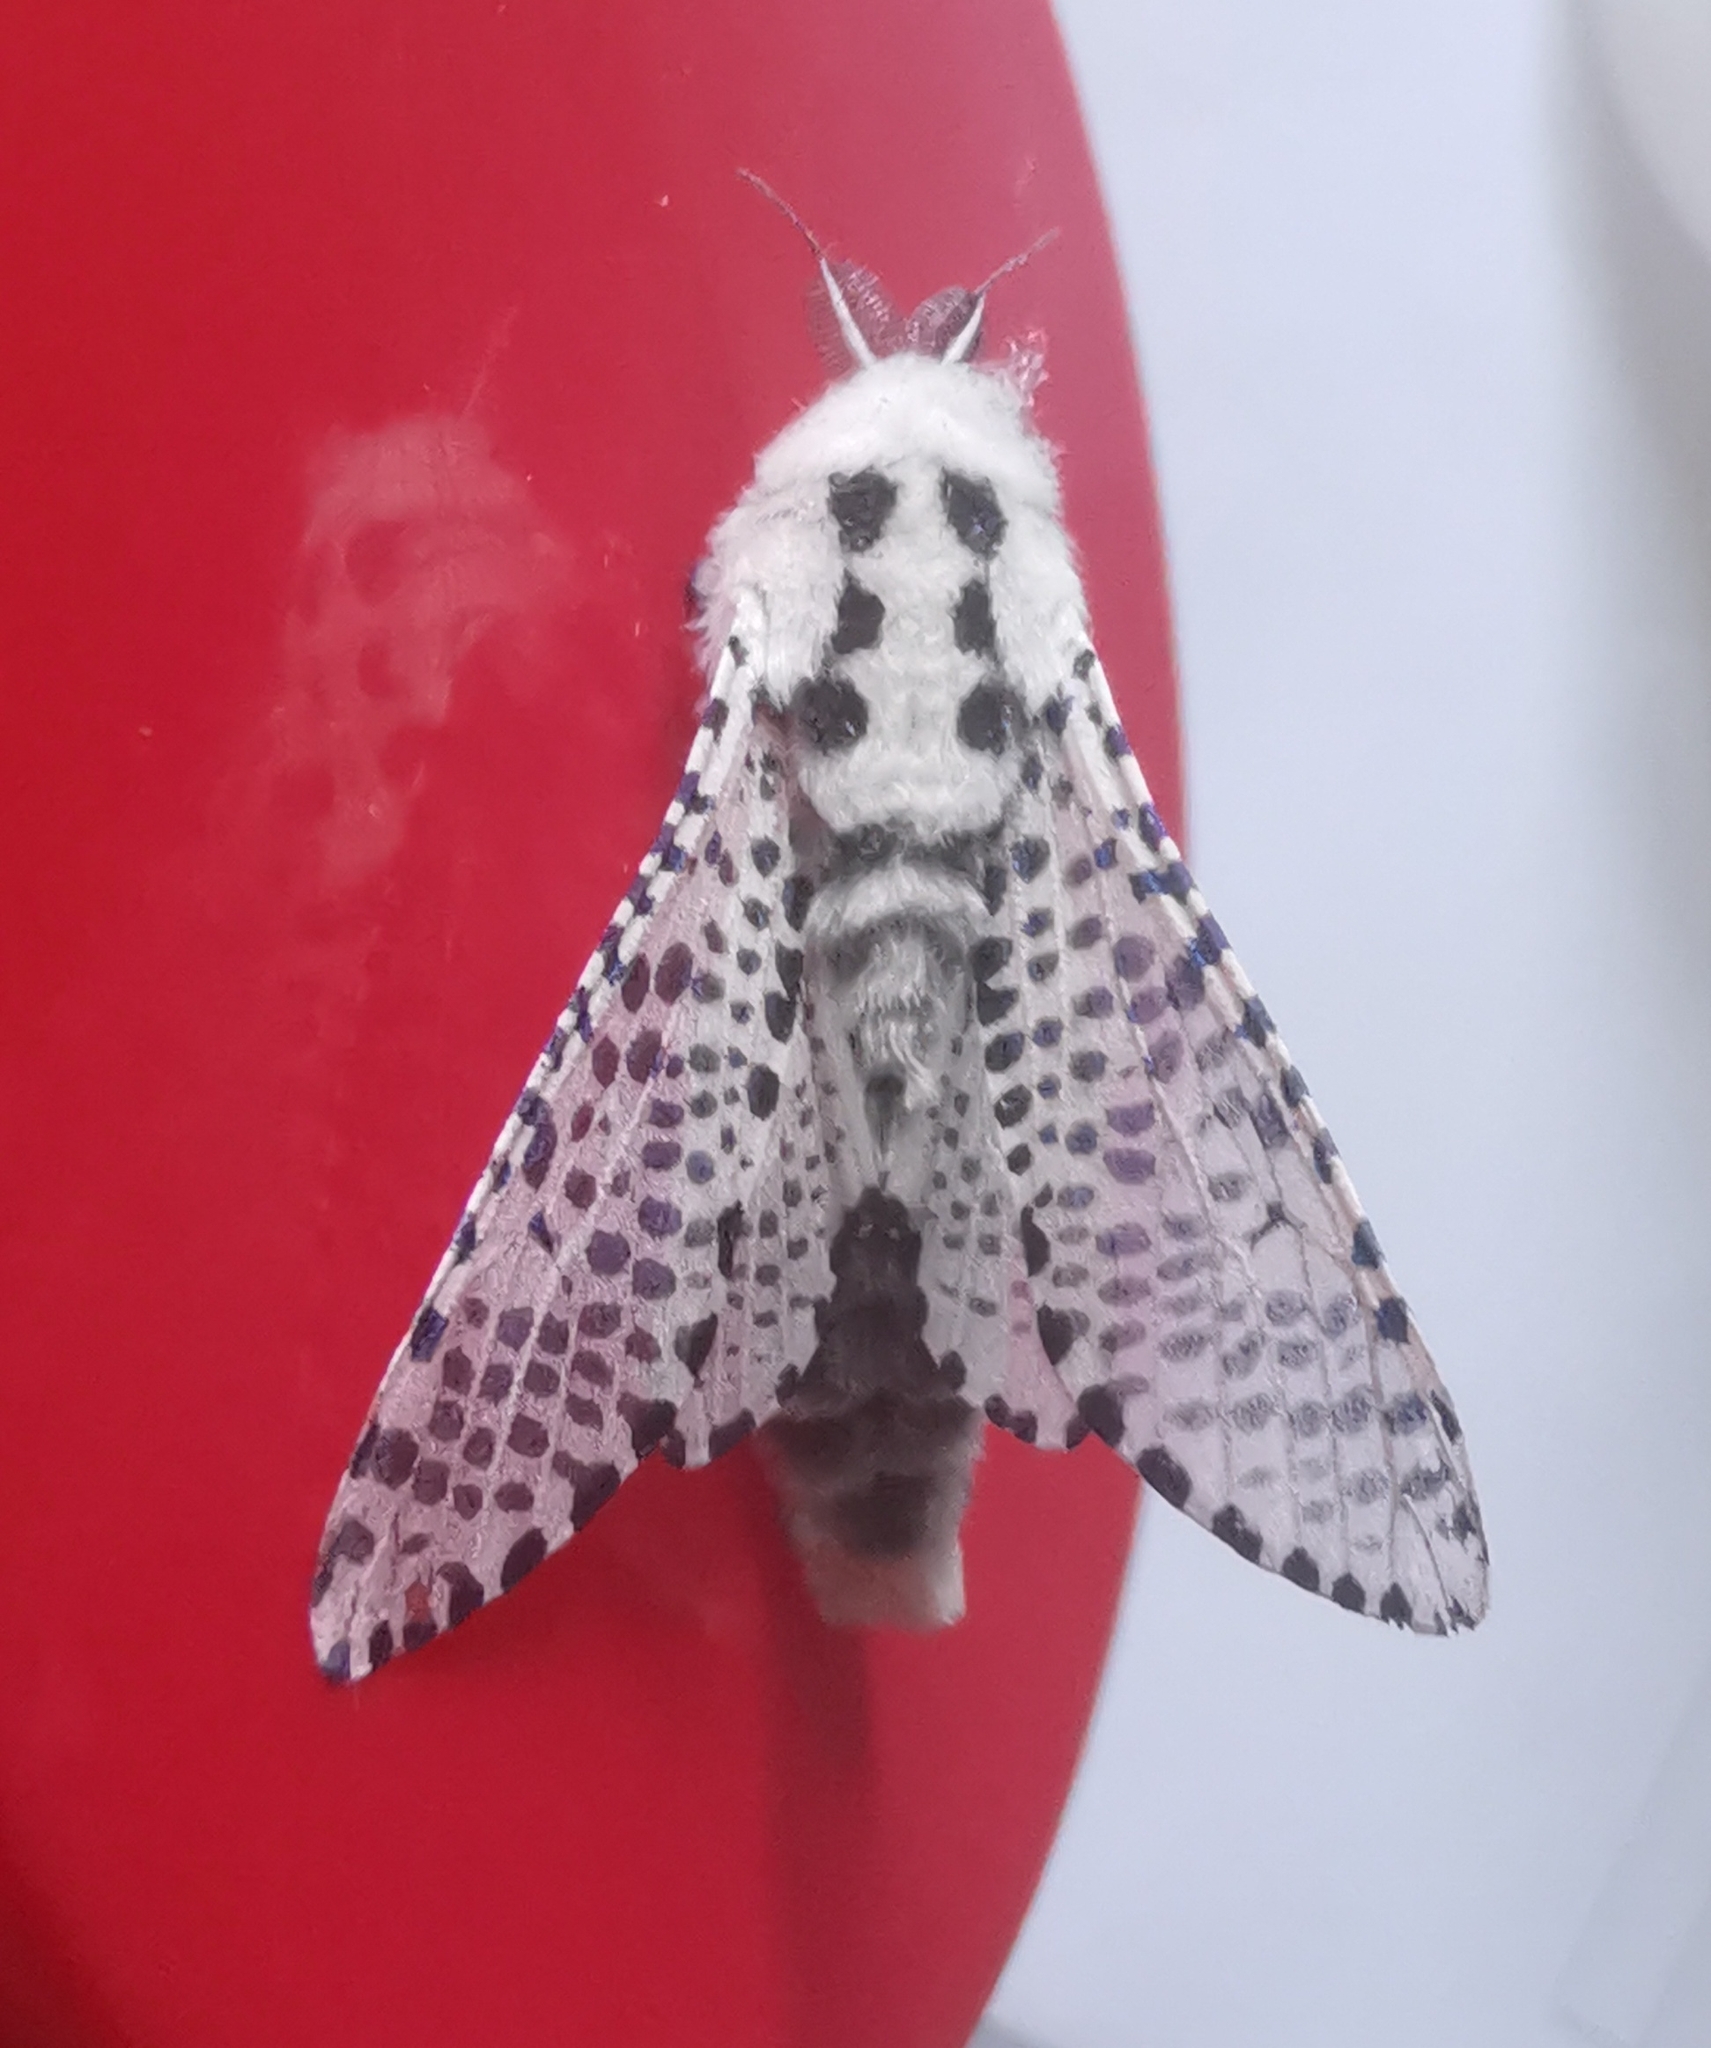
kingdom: Animalia
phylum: Arthropoda
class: Insecta
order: Lepidoptera
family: Cossidae
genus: Zeuzera
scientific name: Zeuzera pyrina
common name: Leopard moth
